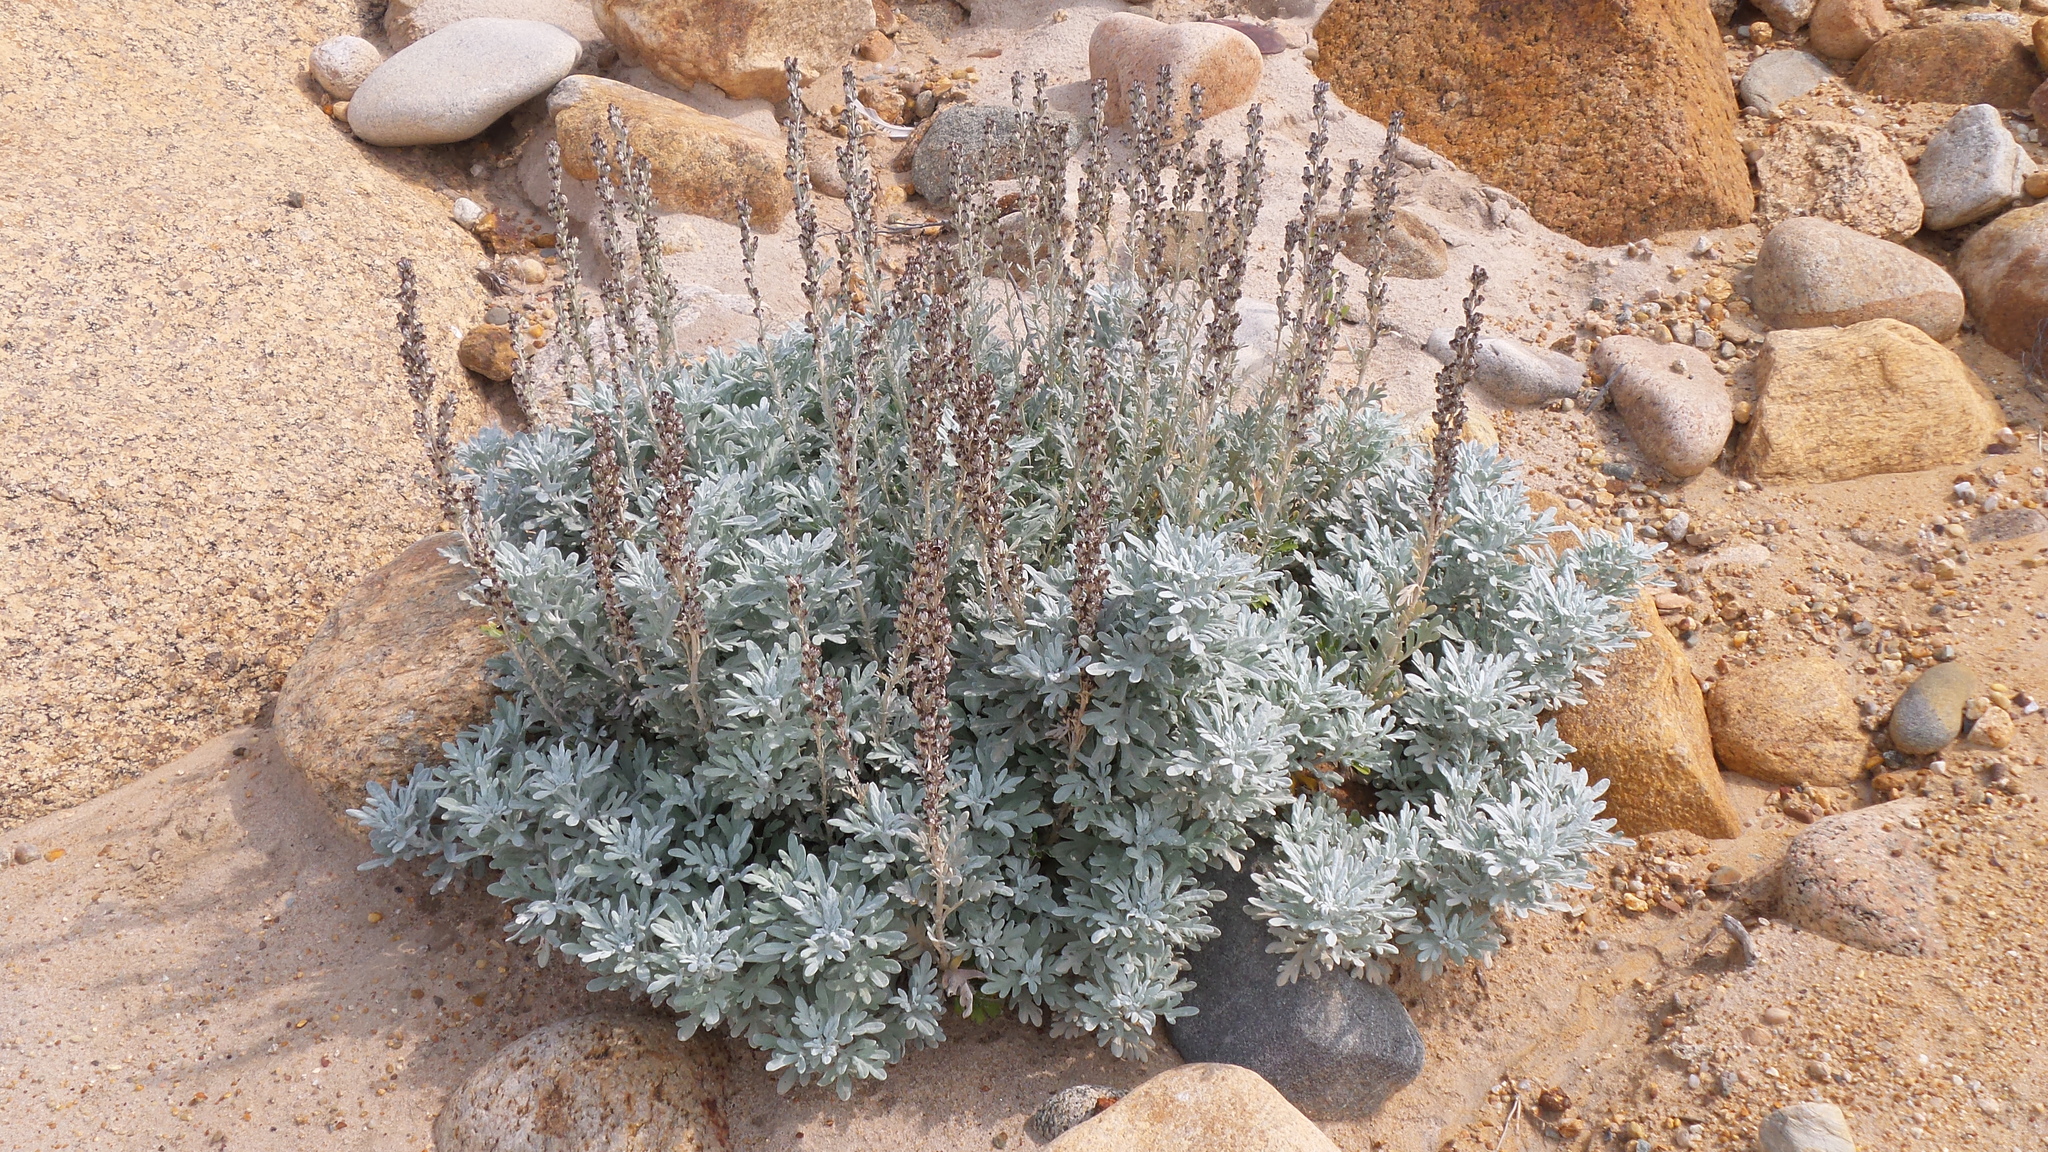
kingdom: Plantae
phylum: Tracheophyta
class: Magnoliopsida
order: Asterales
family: Asteraceae
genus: Artemisia
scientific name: Artemisia stelleriana
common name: Beach wormwood
